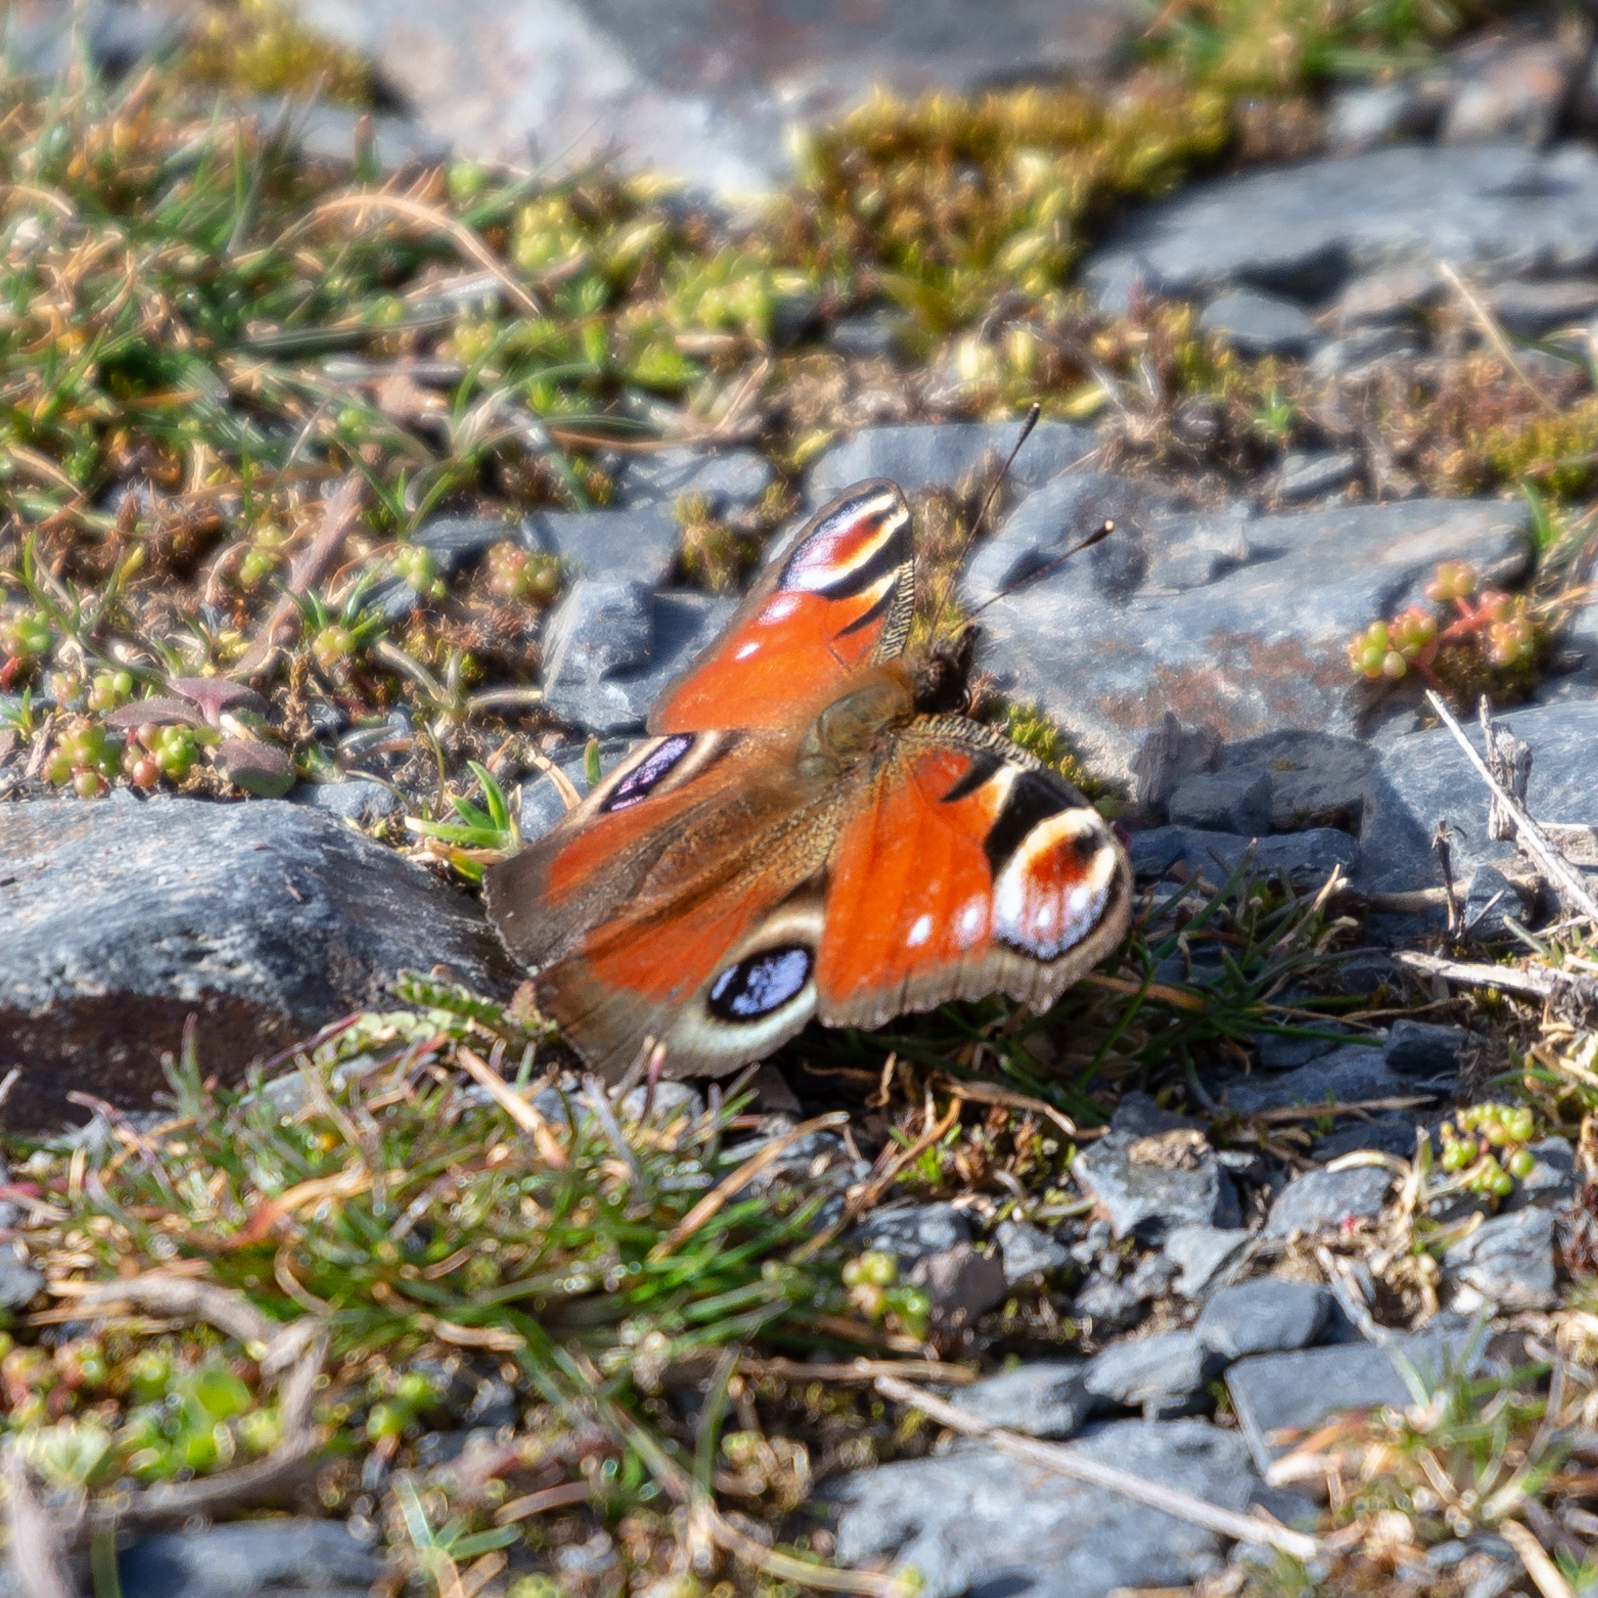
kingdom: Animalia
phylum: Arthropoda
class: Insecta
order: Lepidoptera
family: Nymphalidae
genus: Aglais
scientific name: Aglais io
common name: Peacock
